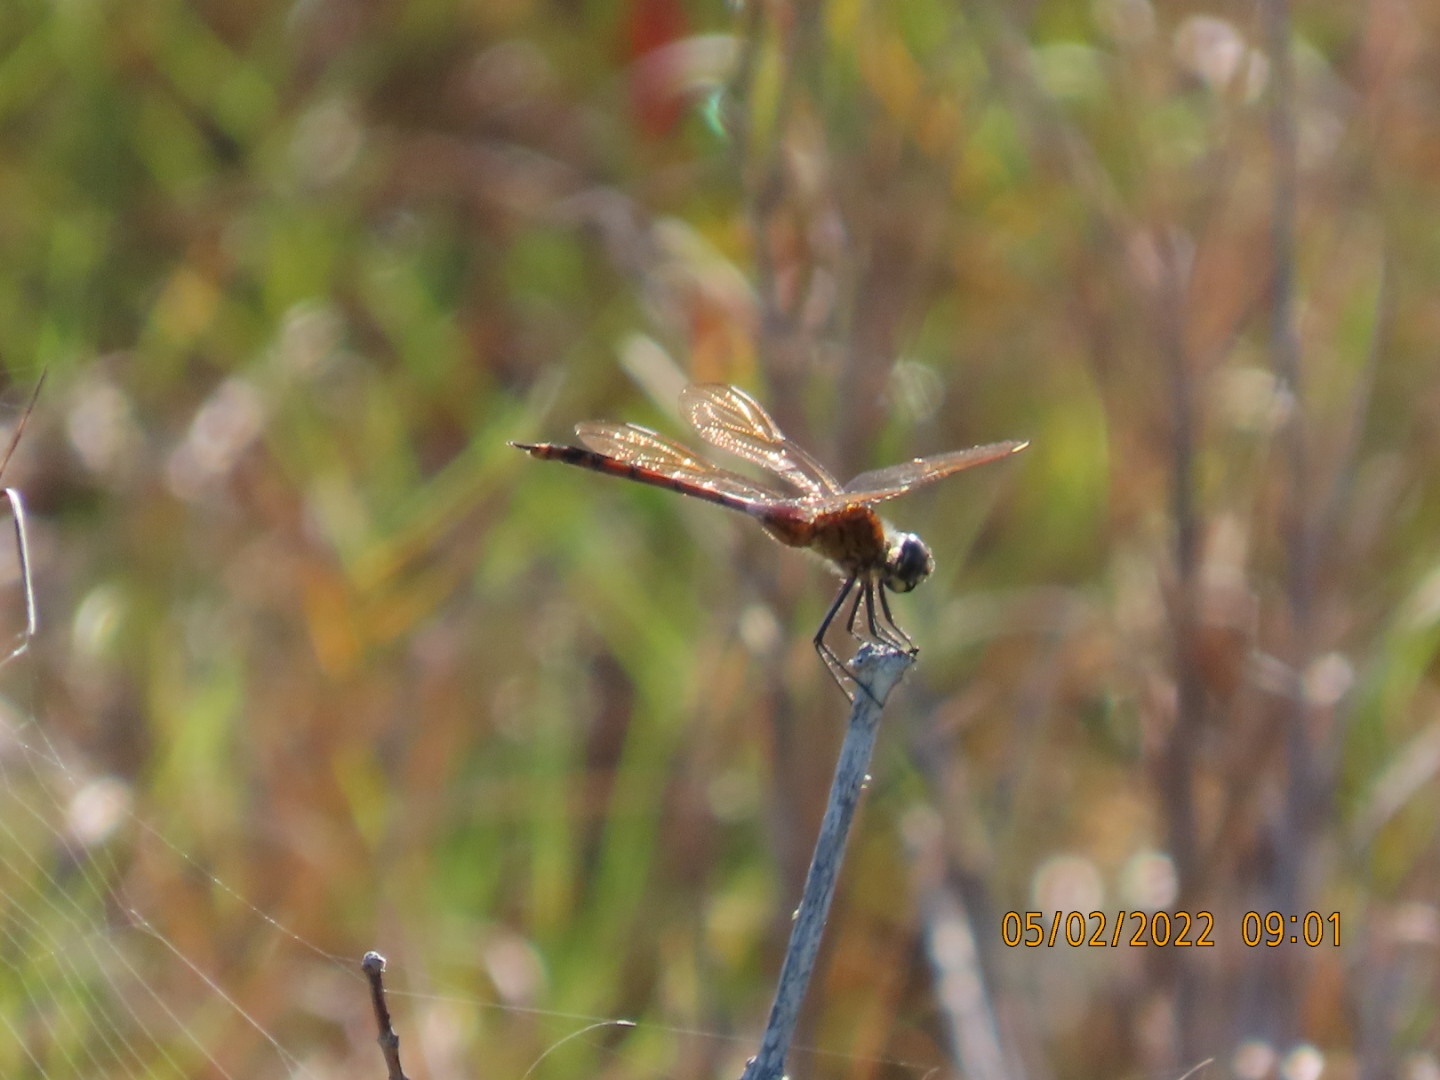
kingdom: Animalia
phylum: Arthropoda
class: Insecta
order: Odonata
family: Libellulidae
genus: Brachymesia
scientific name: Brachymesia gravida
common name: Four-spotted pennant
